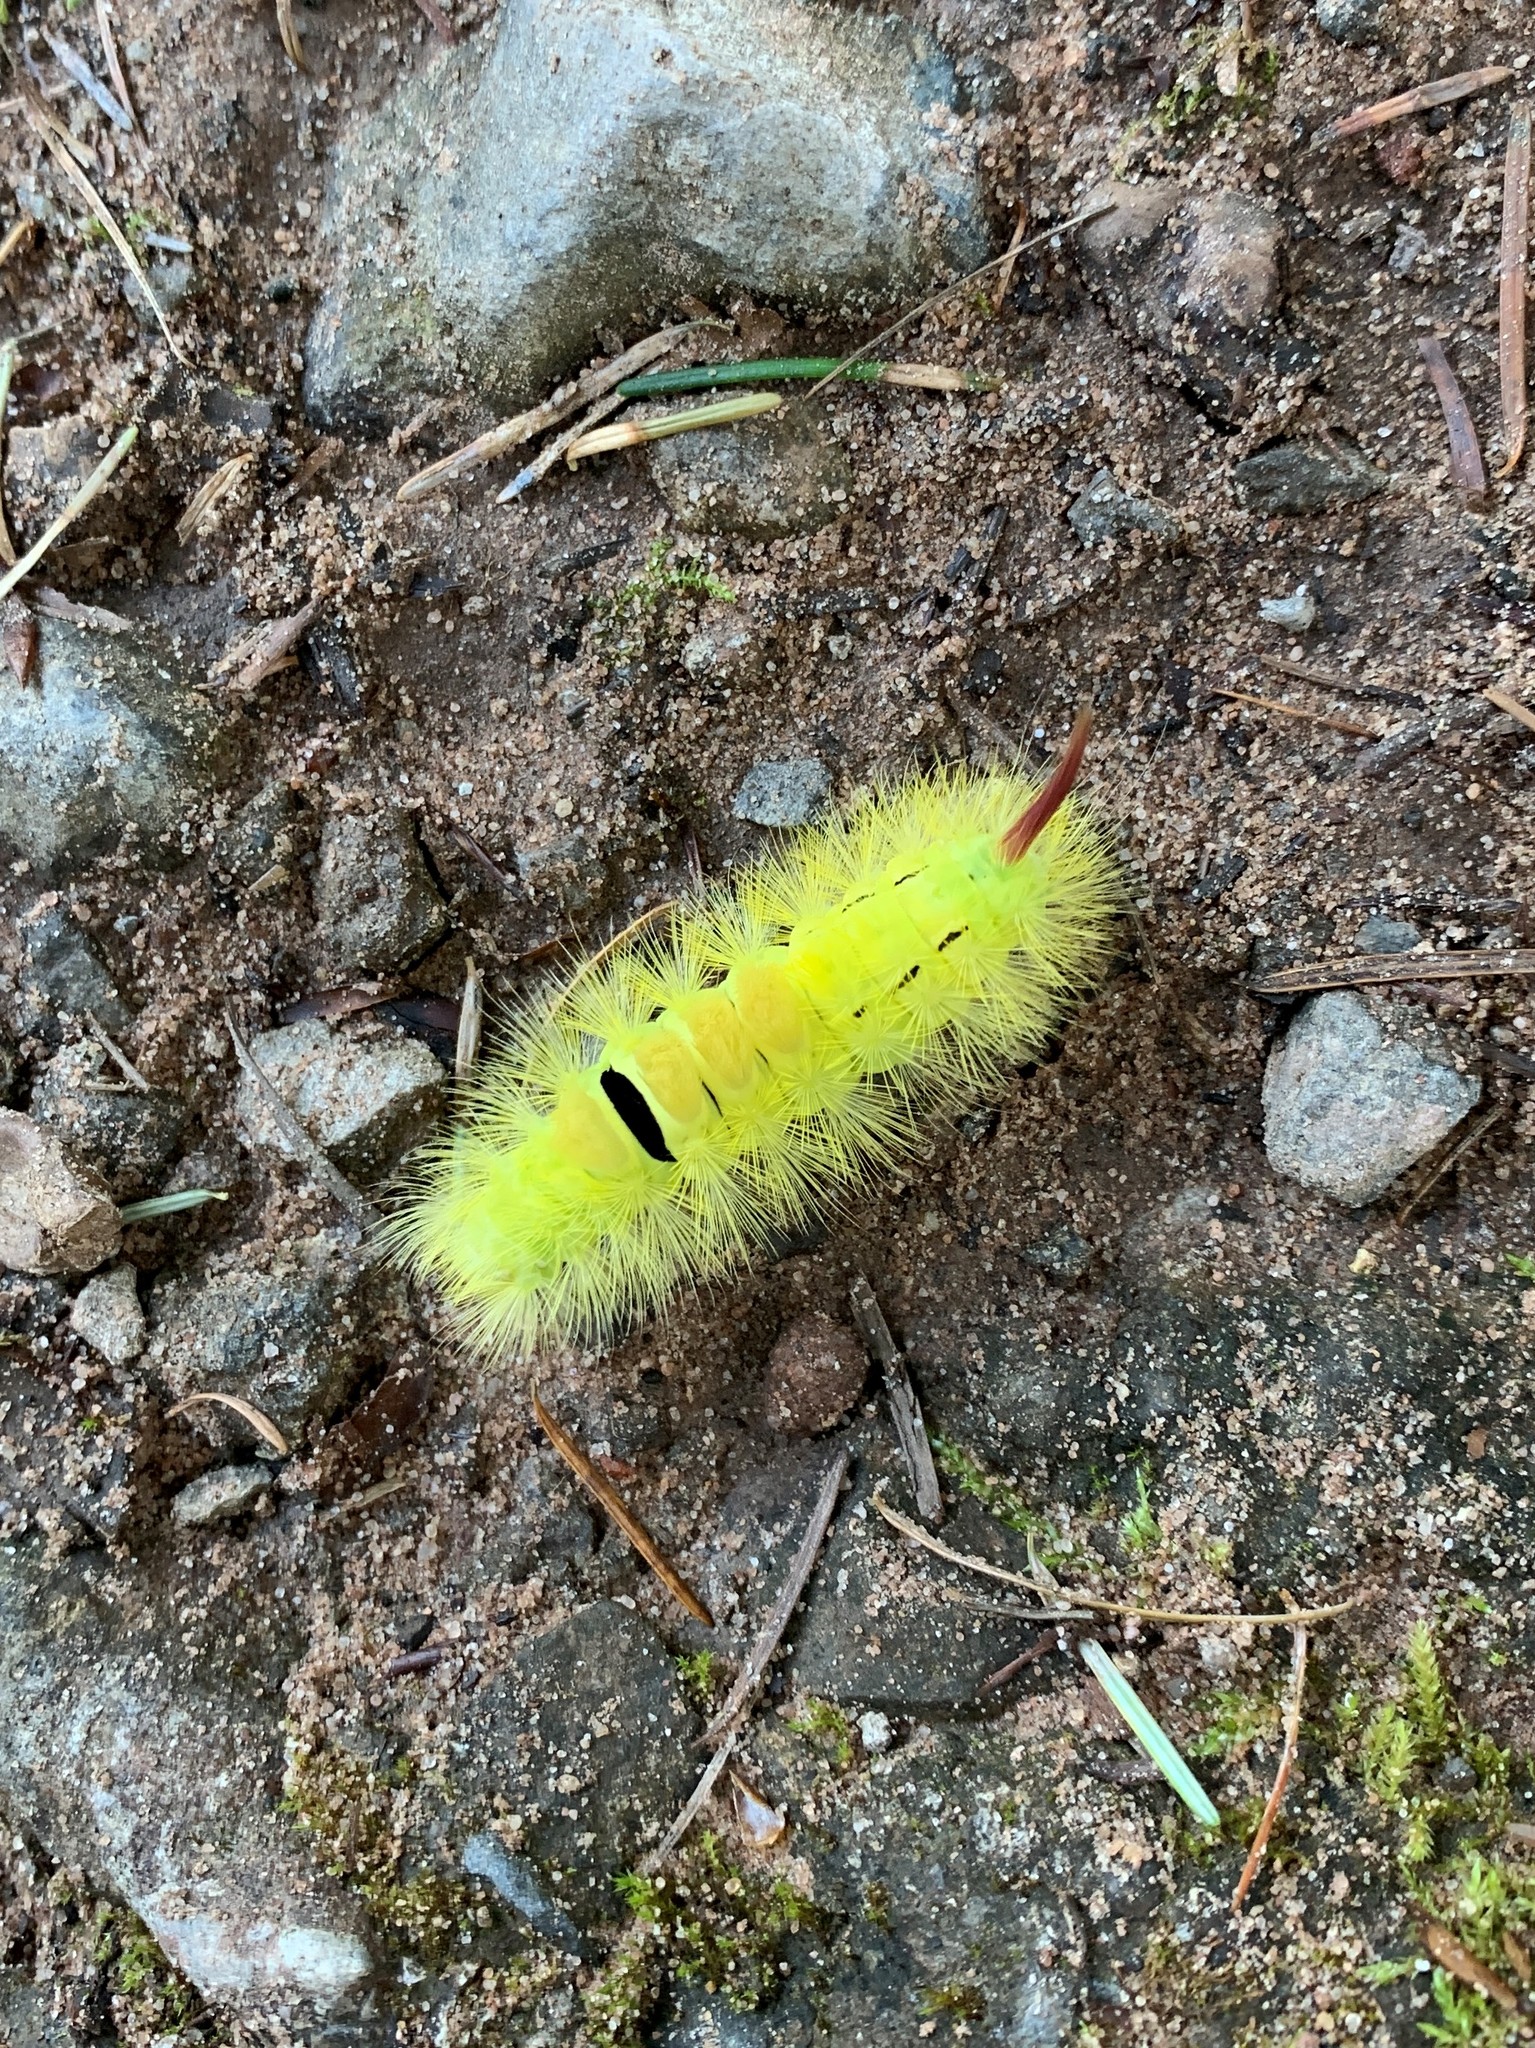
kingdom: Animalia
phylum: Arthropoda
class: Insecta
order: Lepidoptera
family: Erebidae
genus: Calliteara
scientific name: Calliteara pudibunda
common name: Pale tussock
